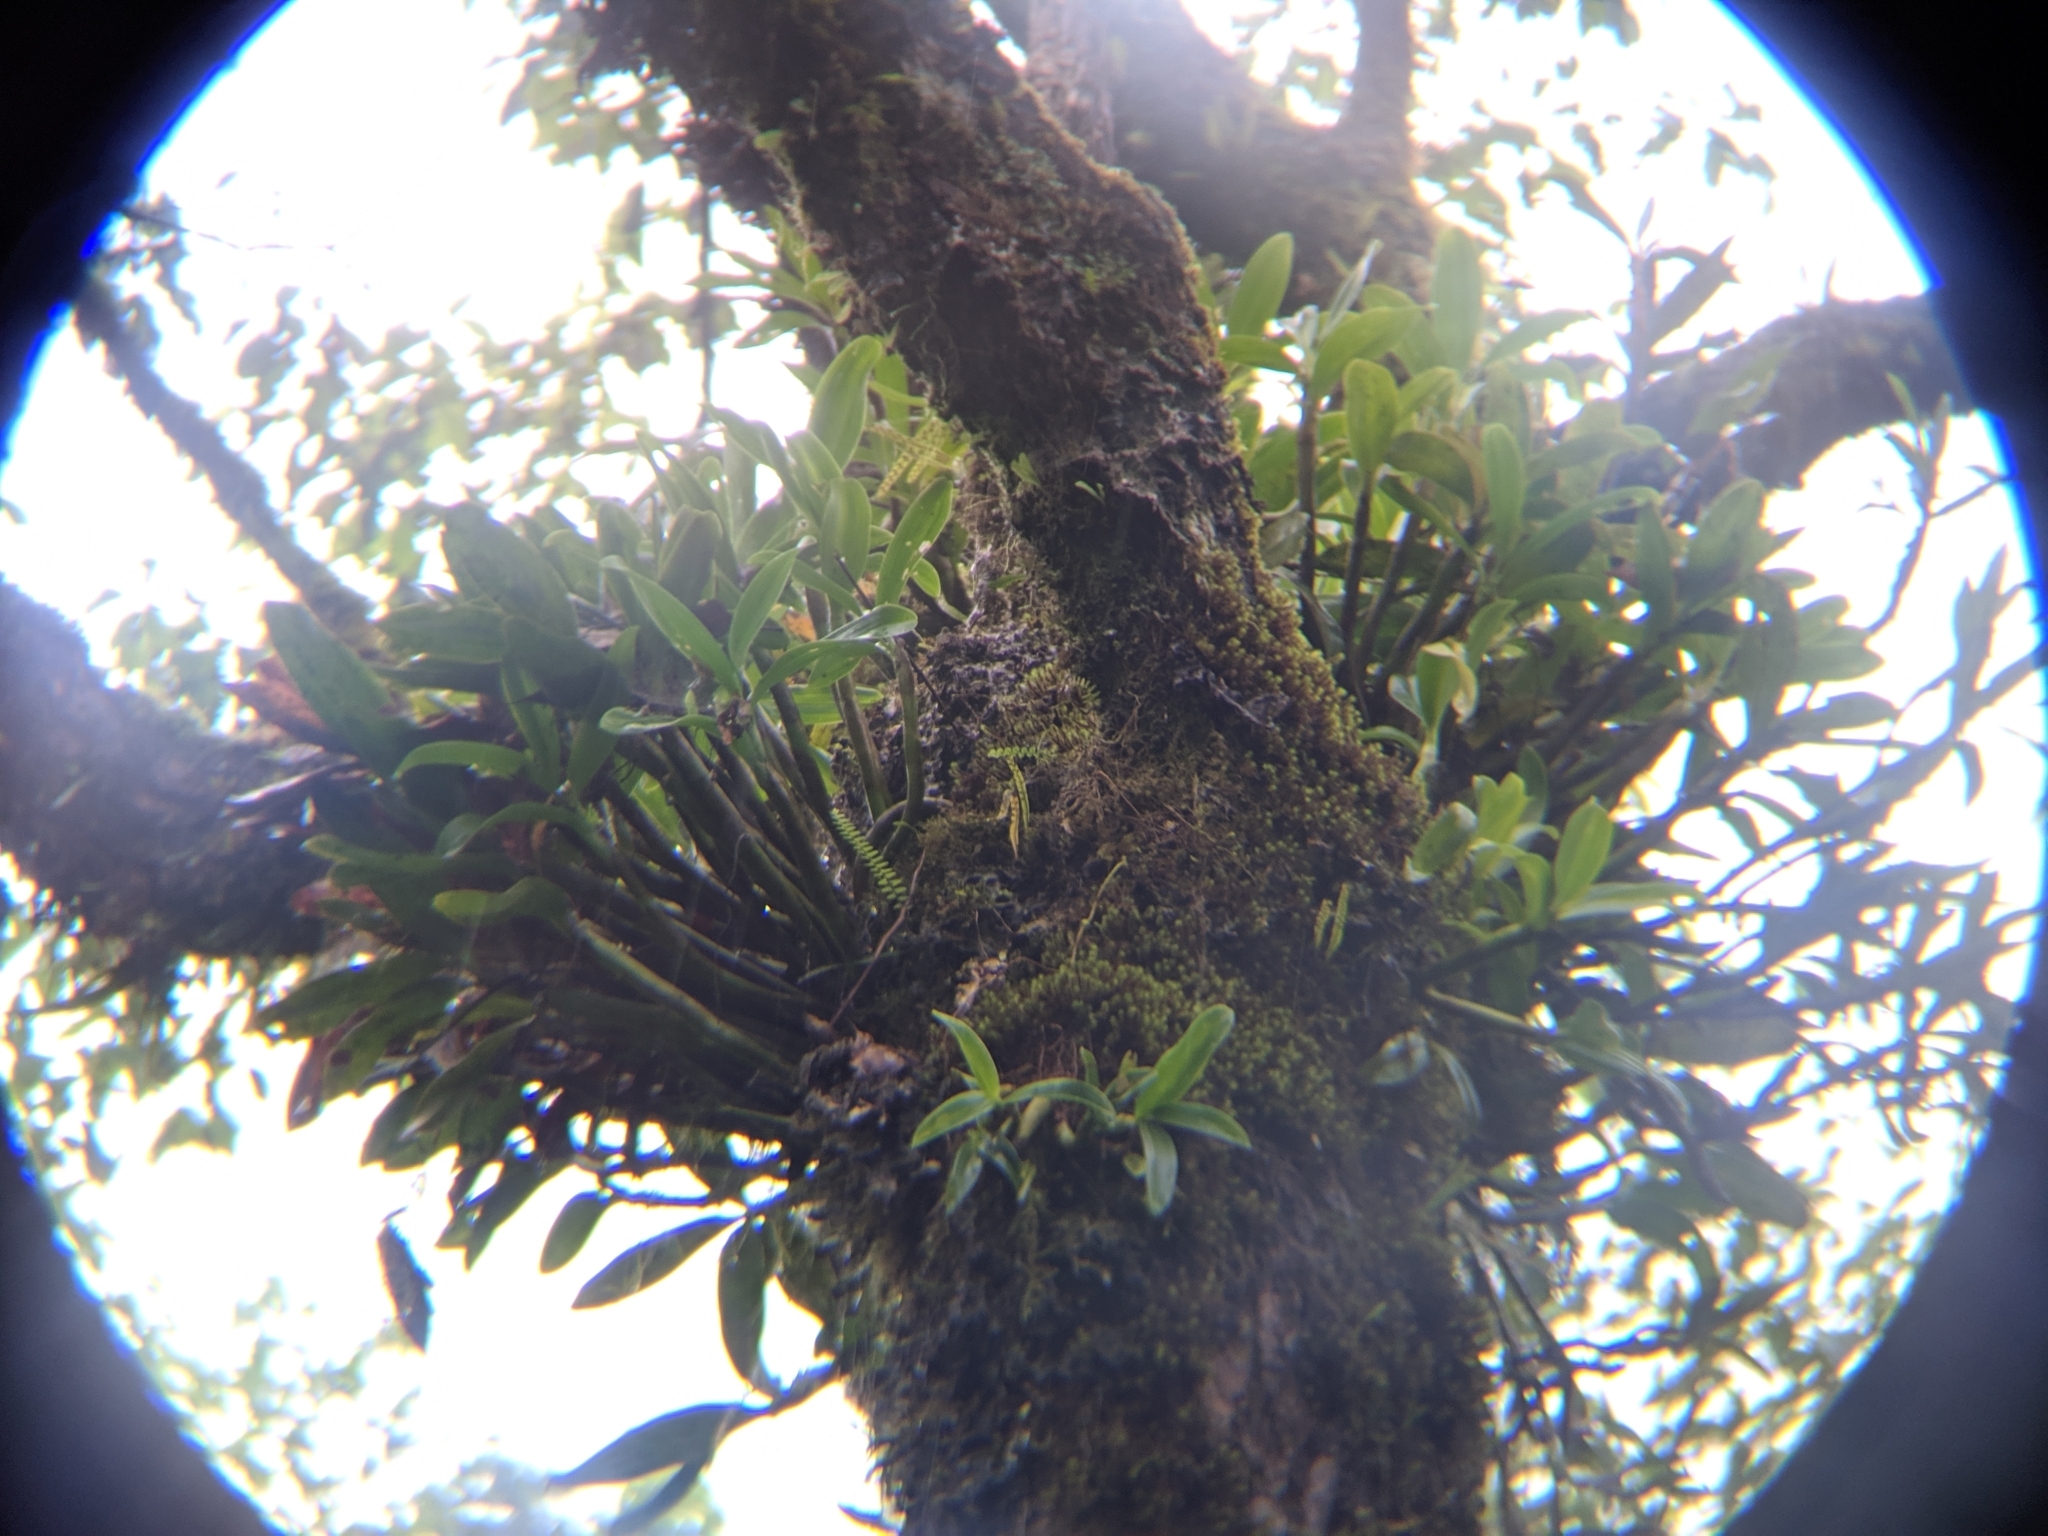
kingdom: Plantae
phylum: Tracheophyta
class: Liliopsida
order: Asparagales
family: Orchidaceae
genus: Pinalia
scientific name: Pinalia ovata
